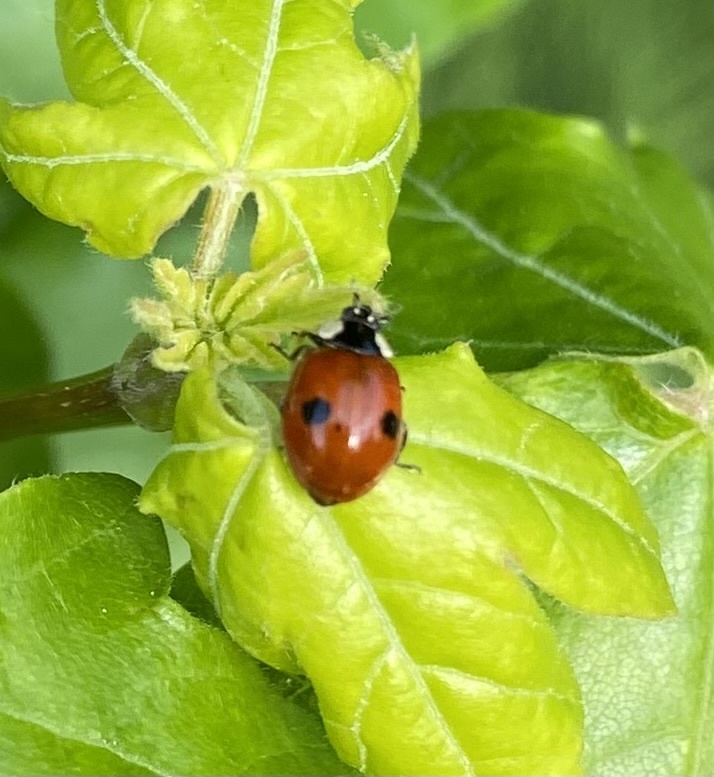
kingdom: Animalia
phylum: Arthropoda
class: Insecta
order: Coleoptera
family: Coccinellidae
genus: Adalia
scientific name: Adalia bipunctata
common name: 2-spot ladybird
